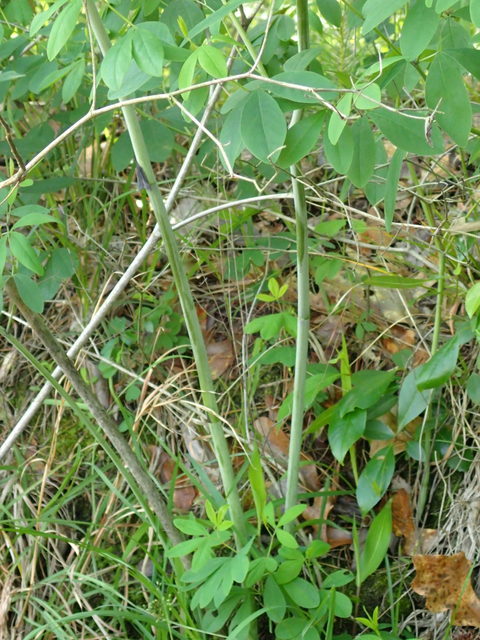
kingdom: Plantae
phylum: Tracheophyta
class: Magnoliopsida
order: Fabales
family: Fabaceae
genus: Baptisia
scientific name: Baptisia alba
